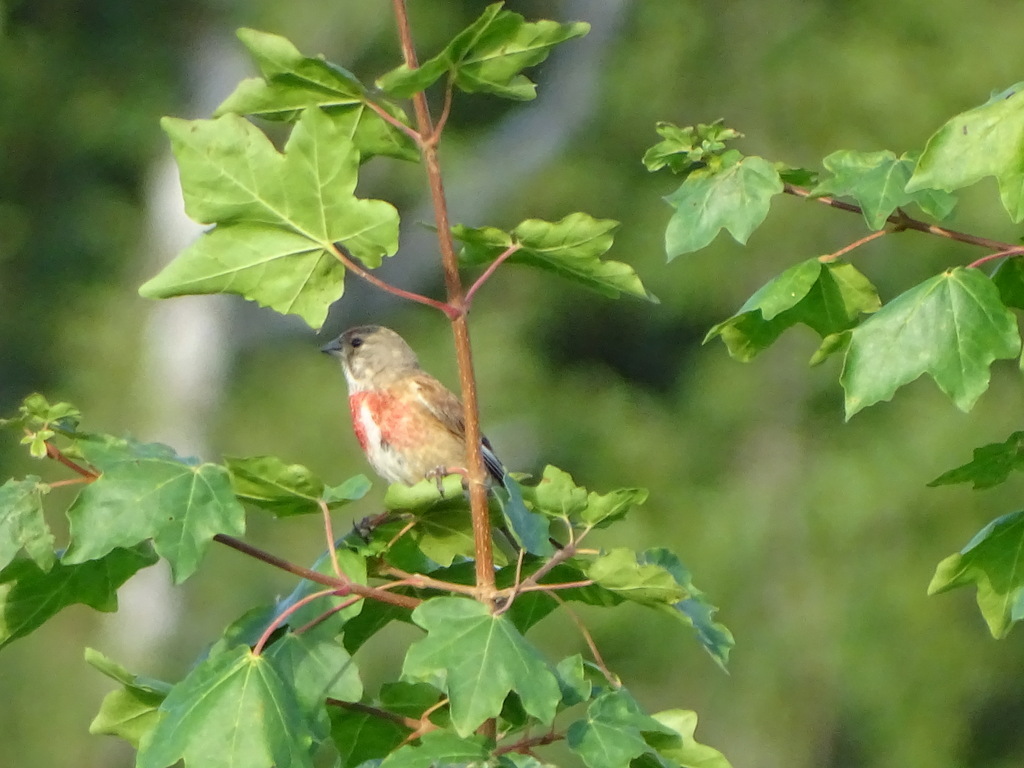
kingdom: Animalia
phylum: Chordata
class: Aves
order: Passeriformes
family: Fringillidae
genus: Linaria
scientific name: Linaria cannabina
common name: Common linnet
